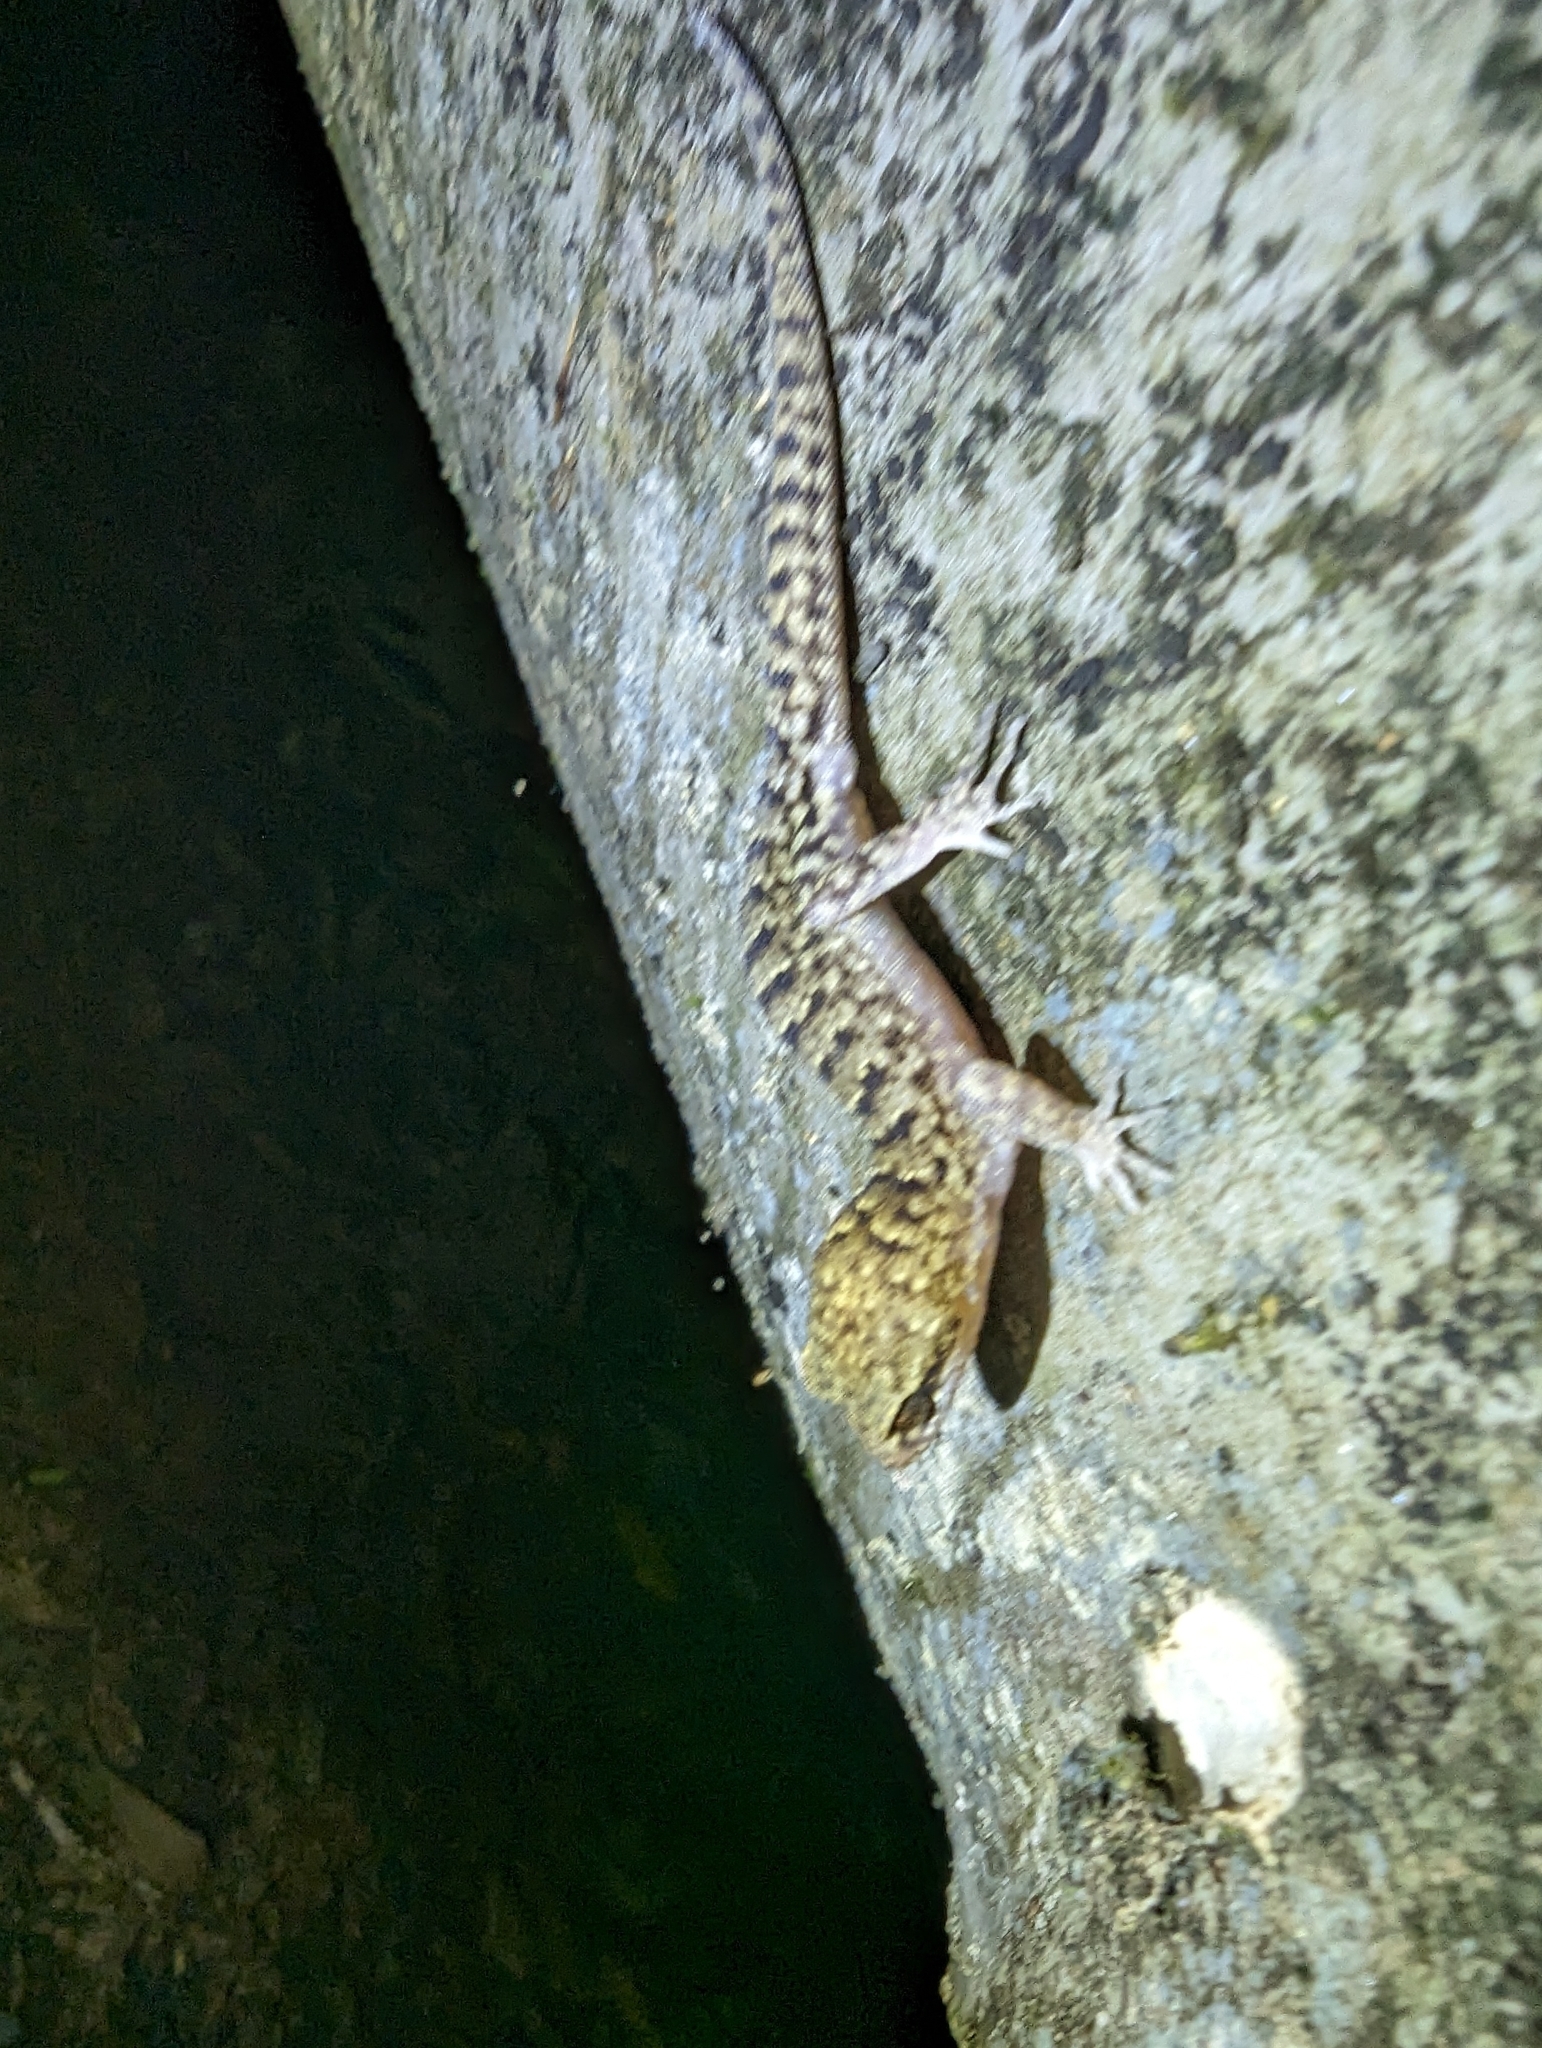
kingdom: Animalia
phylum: Chordata
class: Squamata
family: Gekkonidae
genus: Nactus
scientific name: Nactus cheverti
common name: Chevert's gecko
